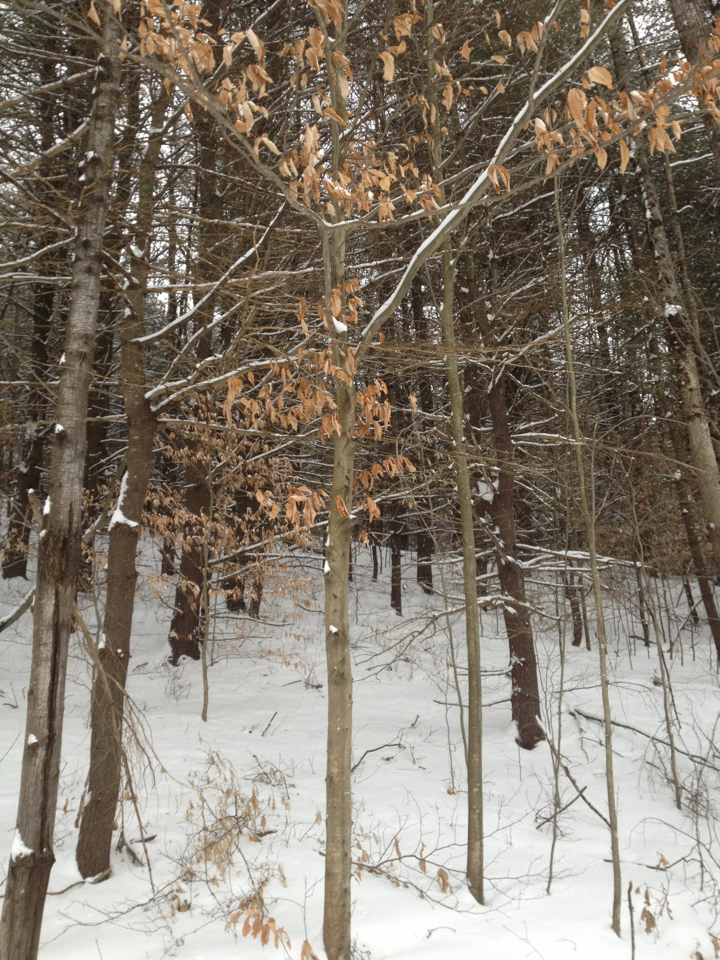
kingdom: Plantae
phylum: Tracheophyta
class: Magnoliopsida
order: Fagales
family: Fagaceae
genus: Fagus
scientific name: Fagus grandifolia
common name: American beech
